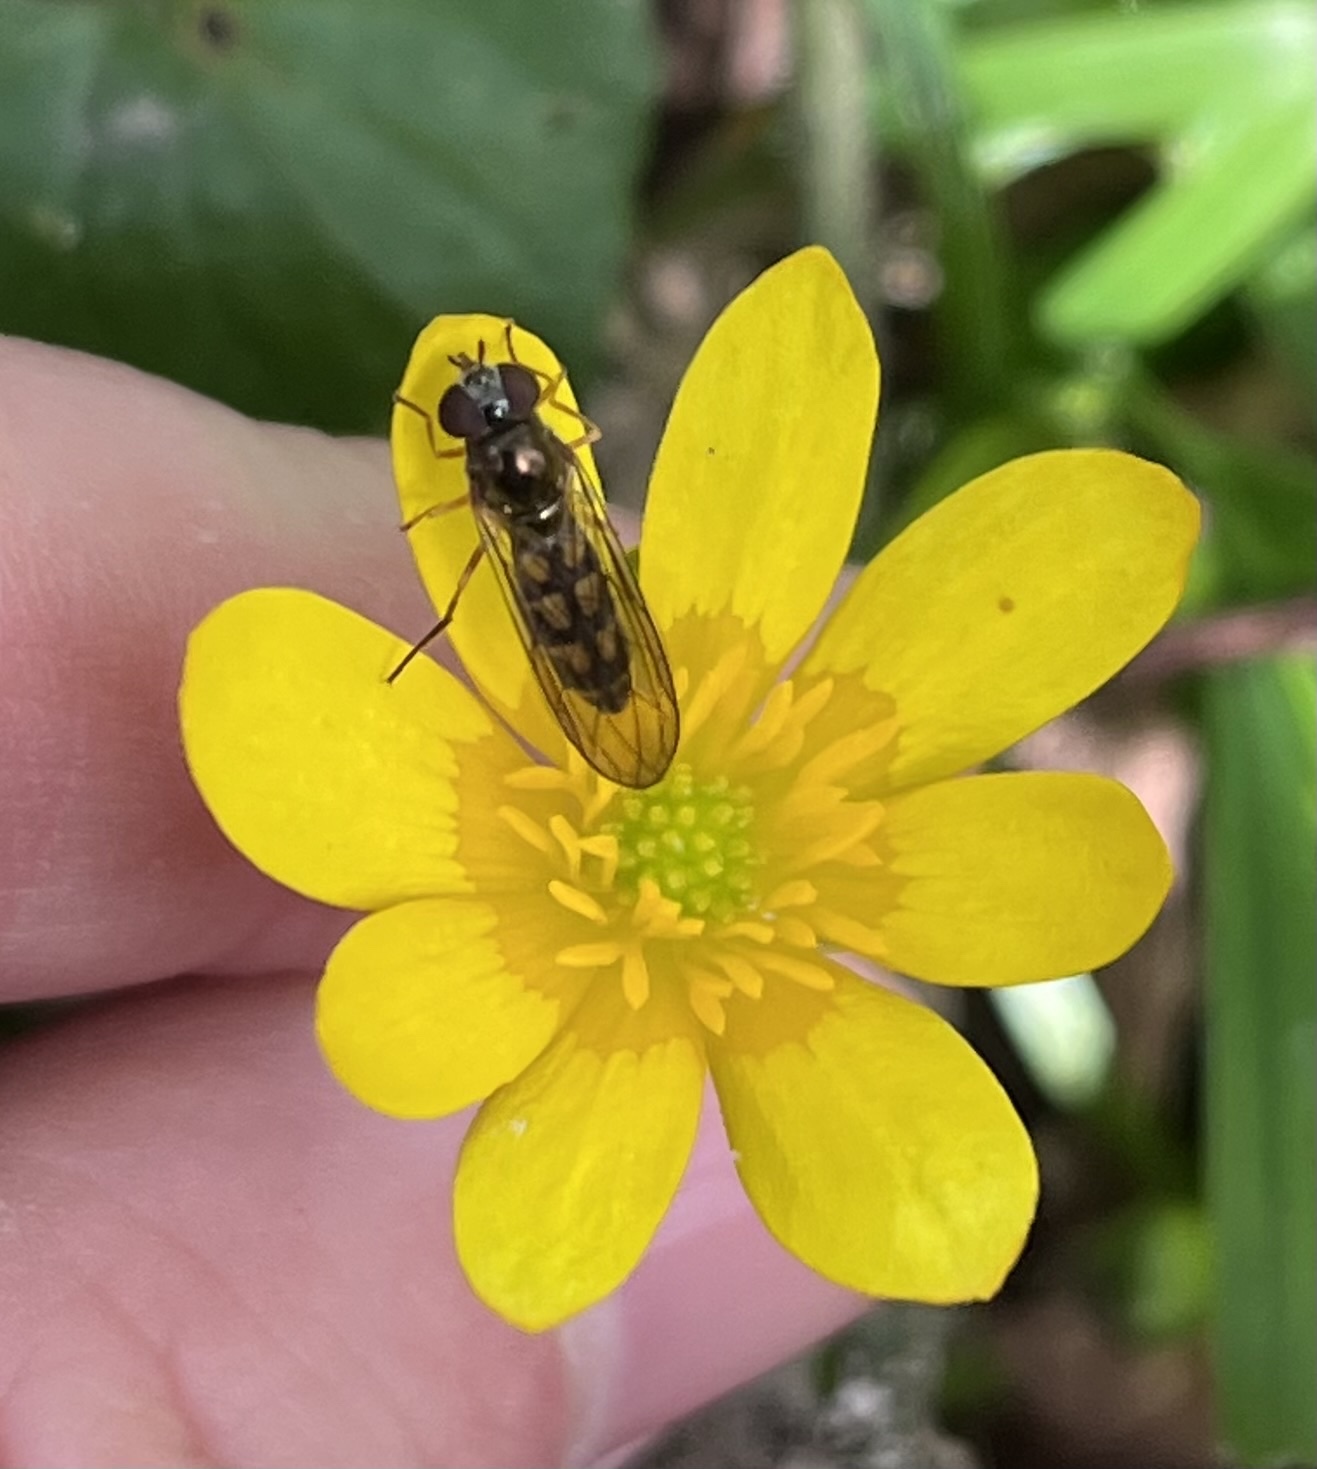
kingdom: Animalia
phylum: Arthropoda
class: Insecta
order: Diptera
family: Syrphidae
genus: Melanostoma
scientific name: Melanostoma scalare
